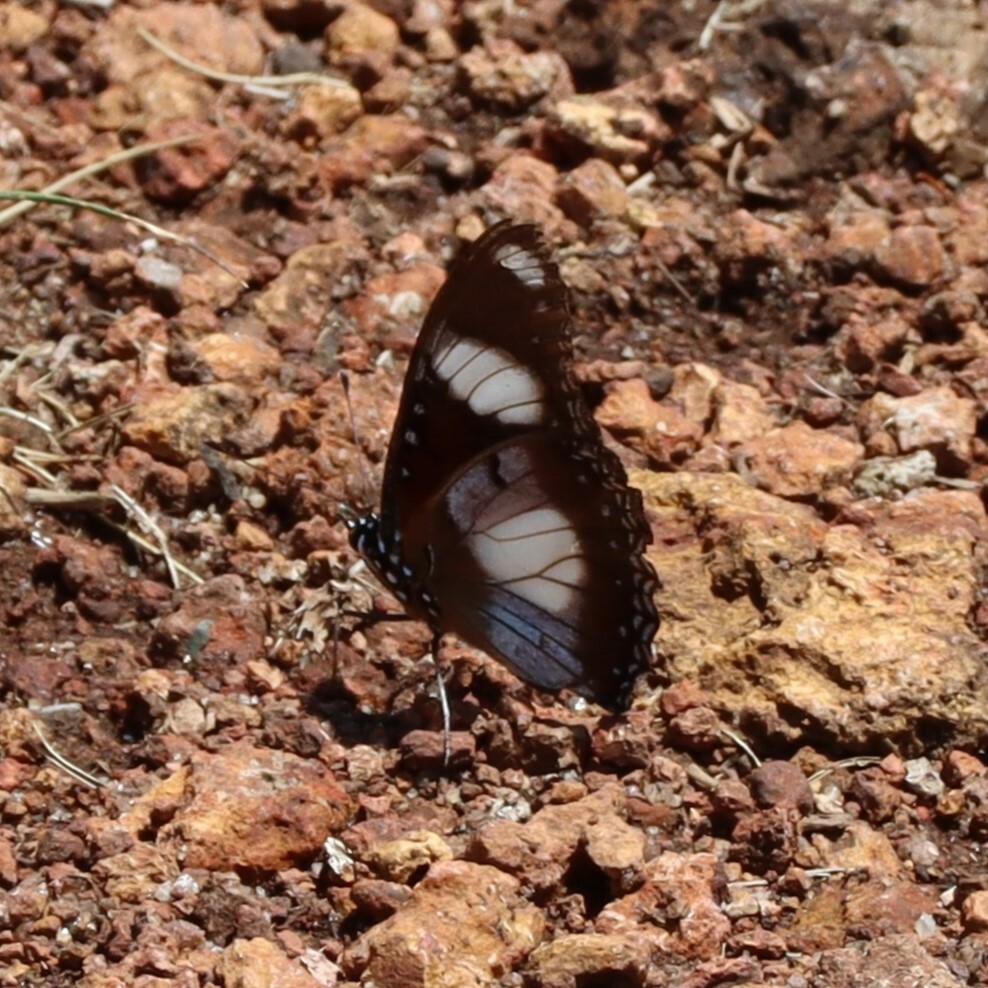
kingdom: Animalia
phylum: Arthropoda
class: Insecta
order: Lepidoptera
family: Nymphalidae
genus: Hypolimnas
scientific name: Hypolimnas misippus
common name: False plain tiger
